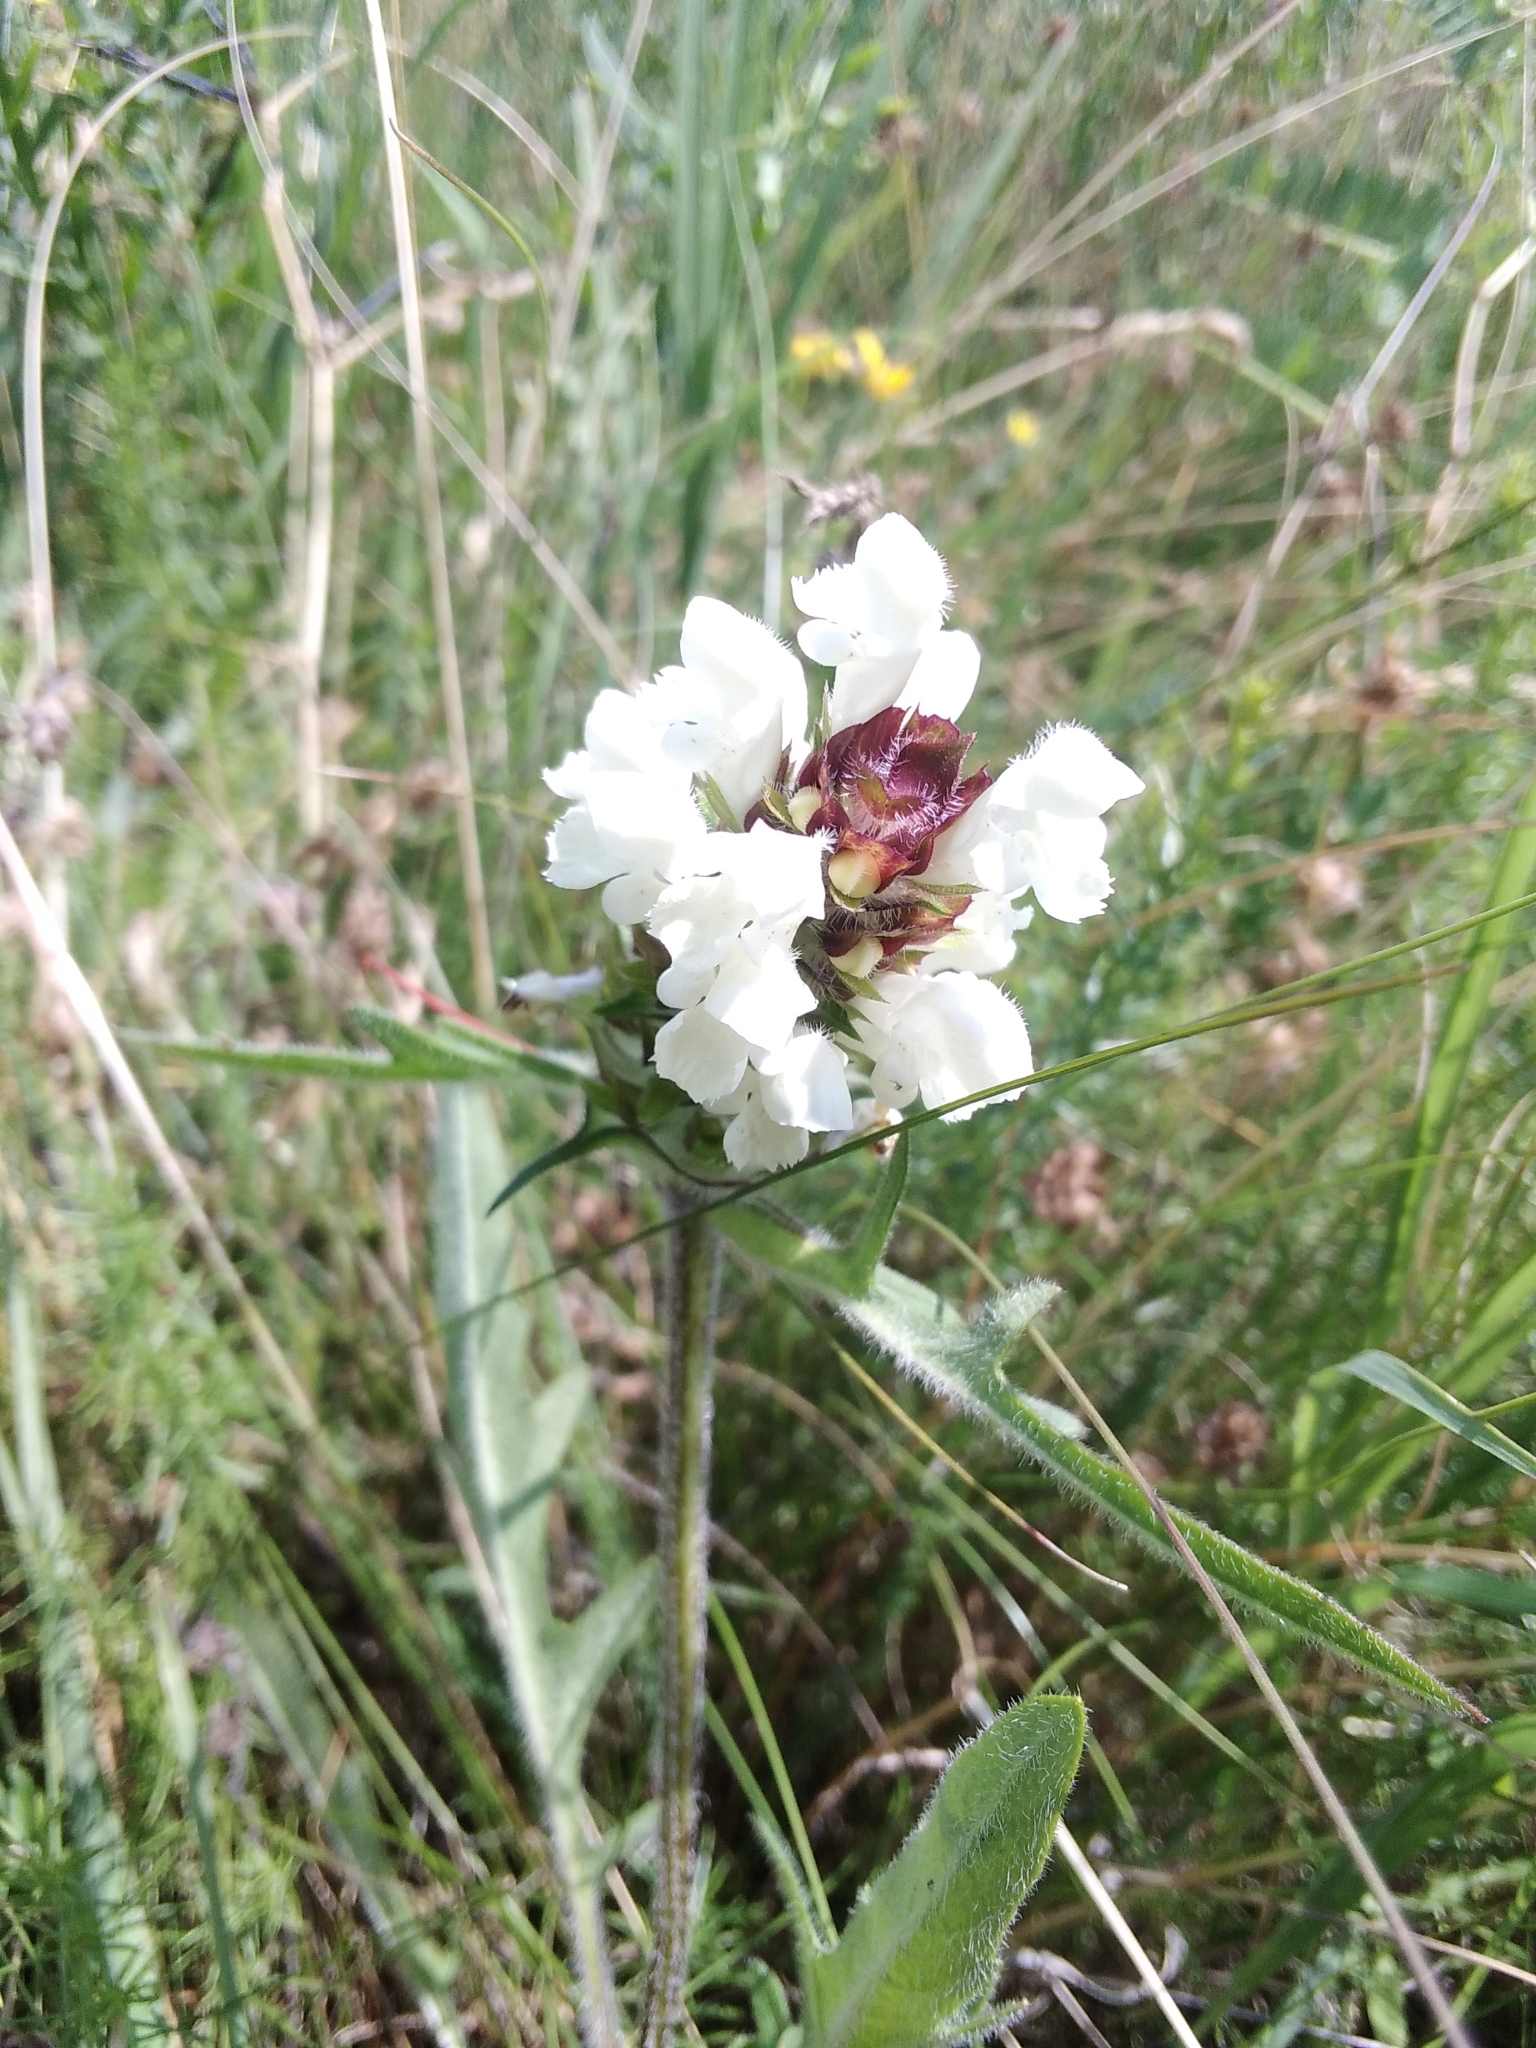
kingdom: Plantae
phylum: Tracheophyta
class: Magnoliopsida
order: Lamiales
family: Lamiaceae
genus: Prunella
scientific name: Prunella laciniata
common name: Cut-leaved selfheal
